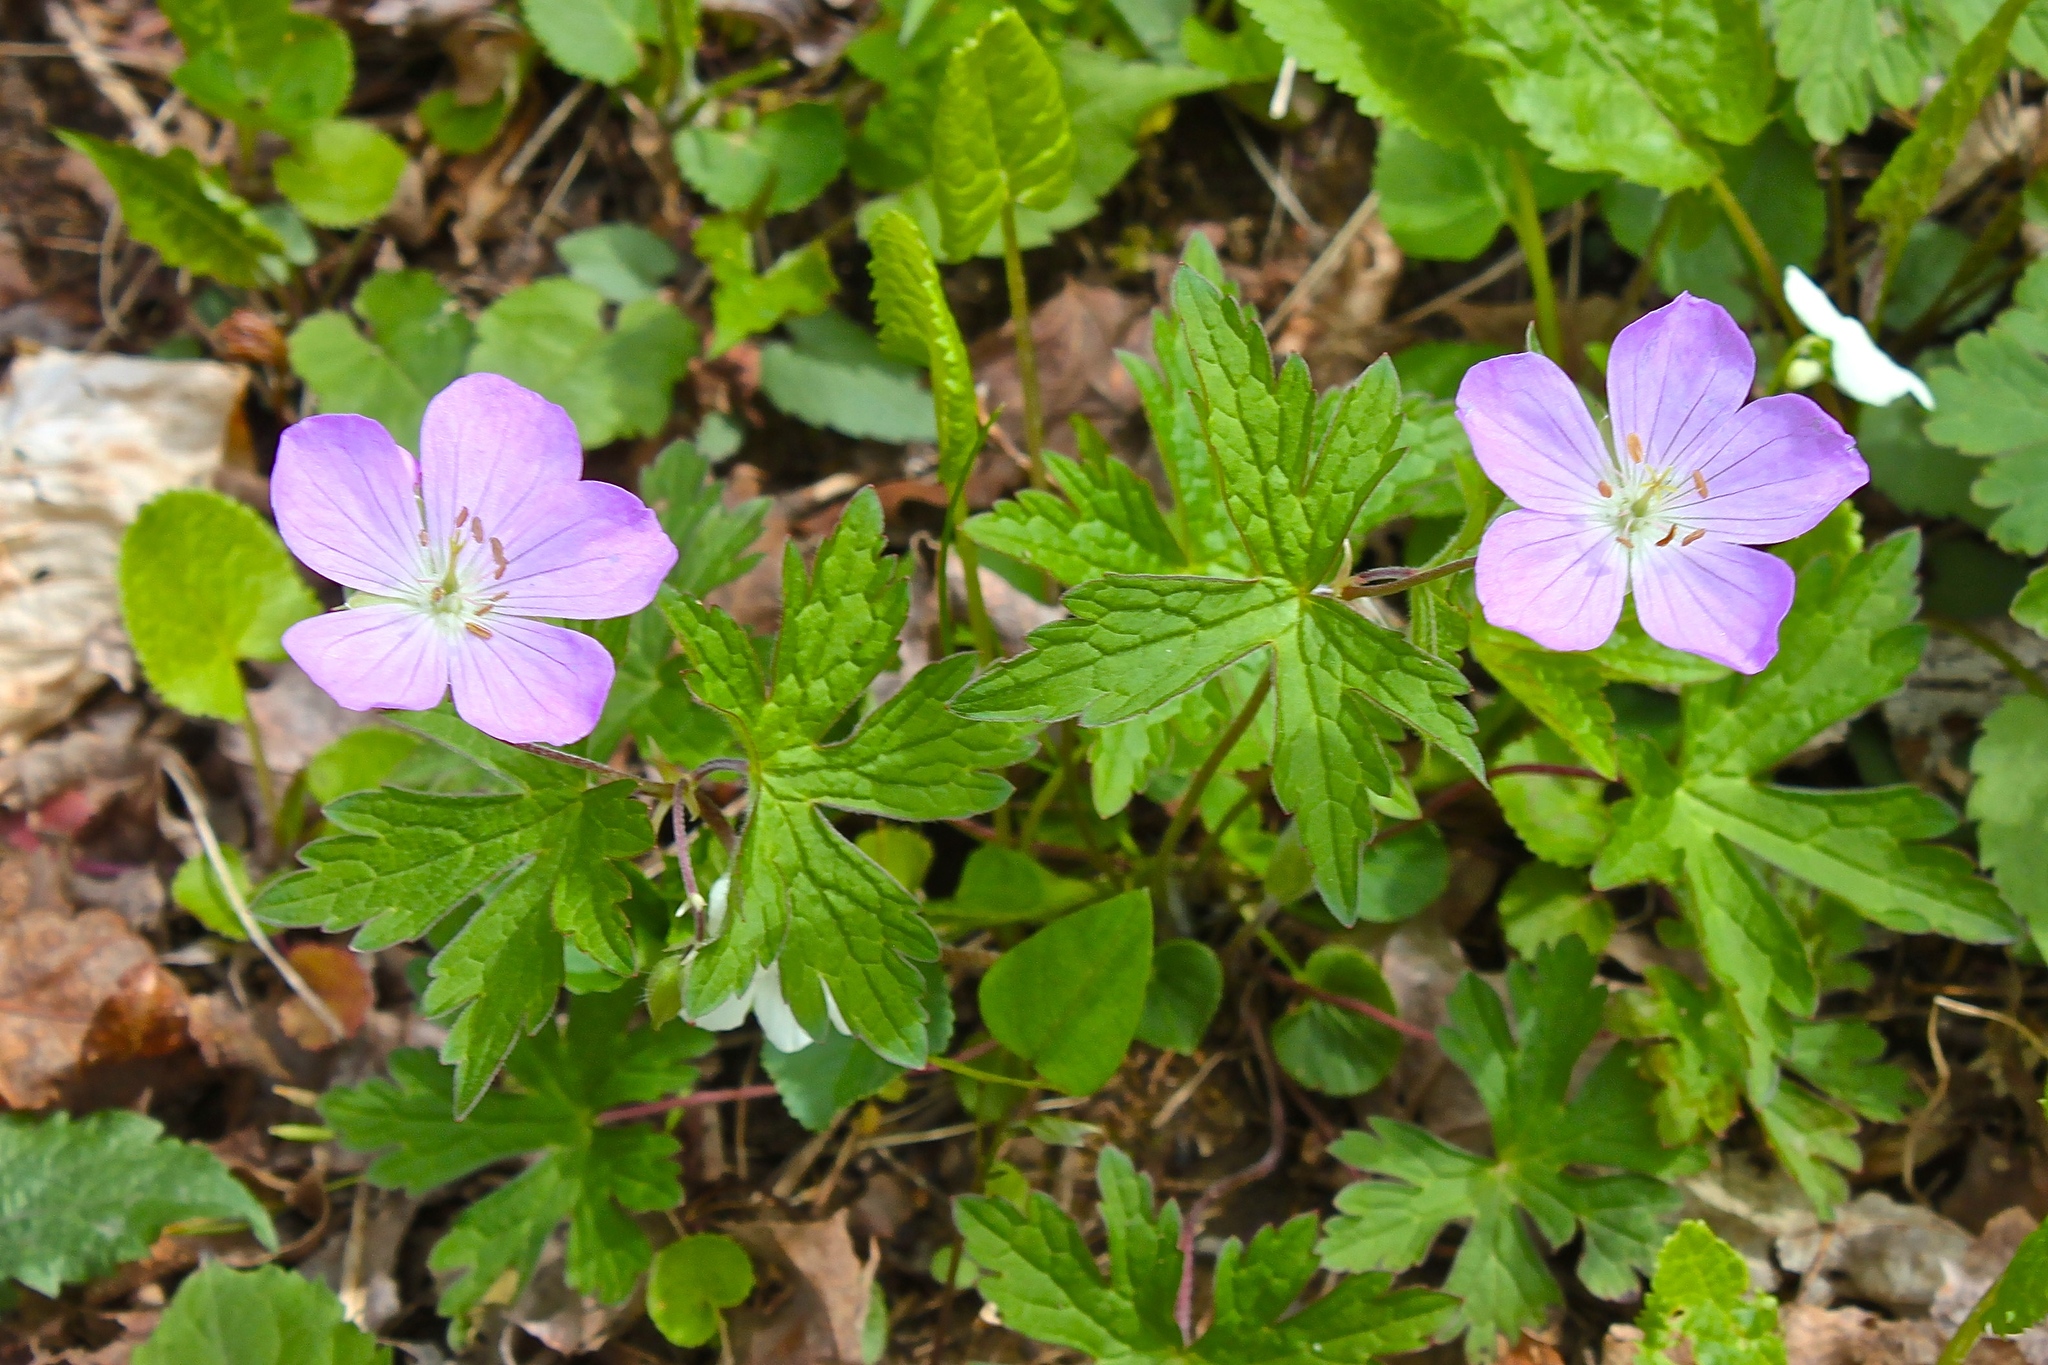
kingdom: Plantae
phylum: Tracheophyta
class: Magnoliopsida
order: Geraniales
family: Geraniaceae
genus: Geranium
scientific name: Geranium maculatum
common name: Spotted geranium
